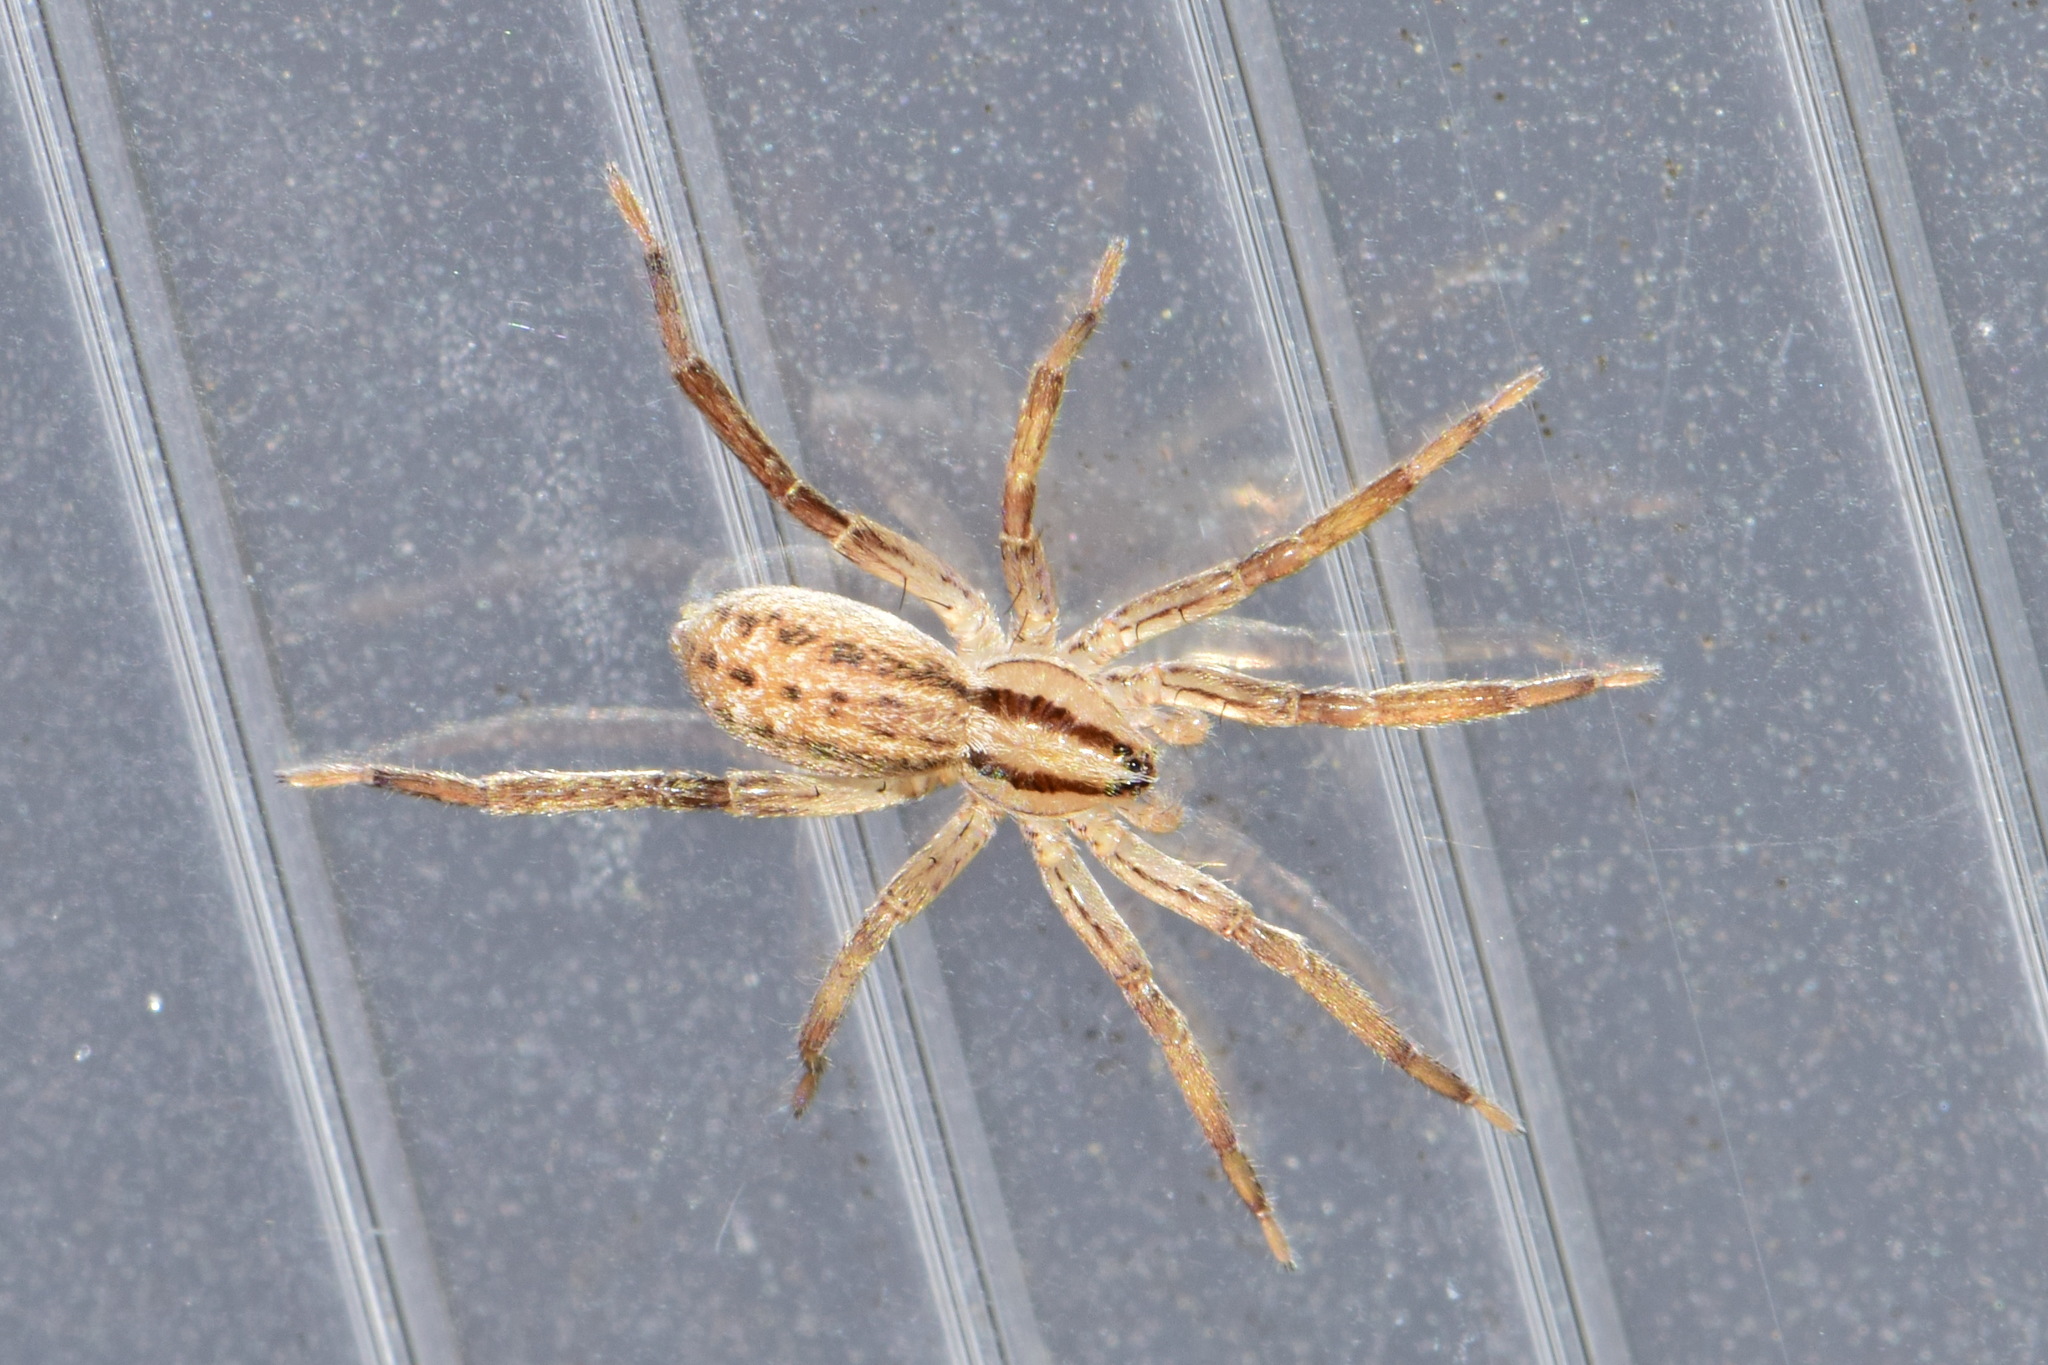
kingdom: Animalia
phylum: Arthropoda
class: Arachnida
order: Araneae
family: Miturgidae
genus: Zora
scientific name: Zora spinimana
